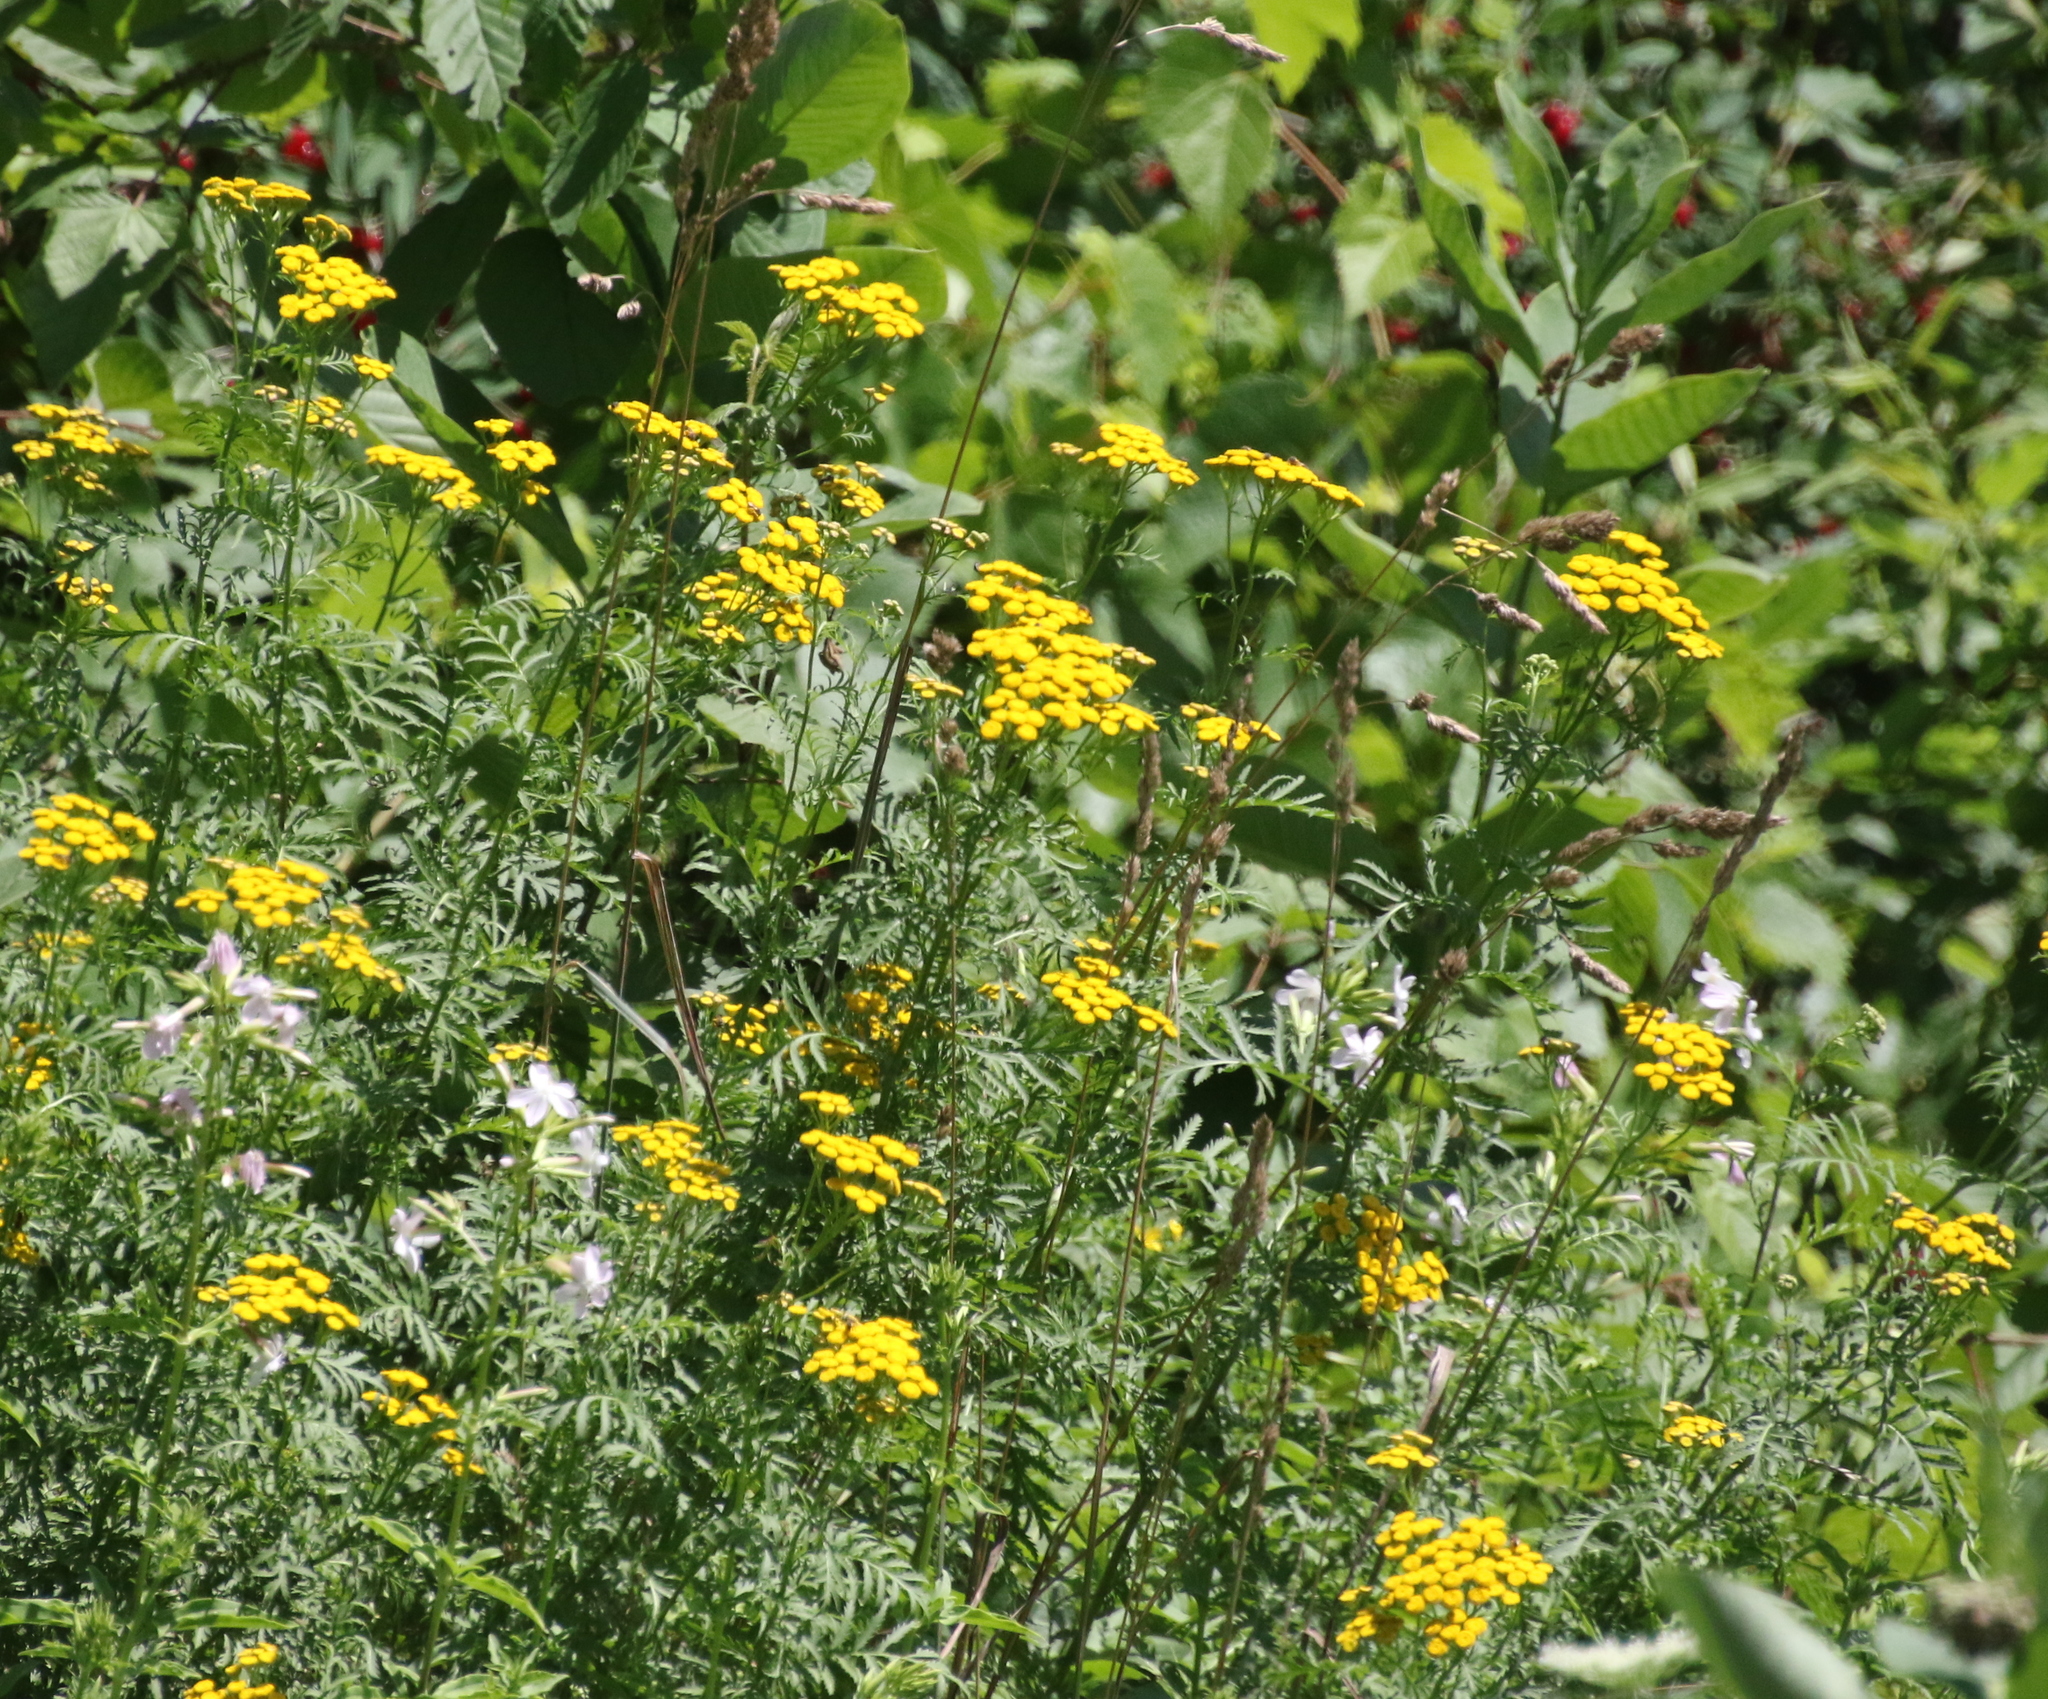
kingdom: Plantae
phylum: Tracheophyta
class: Magnoliopsida
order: Asterales
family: Asteraceae
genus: Tanacetum
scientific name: Tanacetum vulgare
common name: Common tansy
